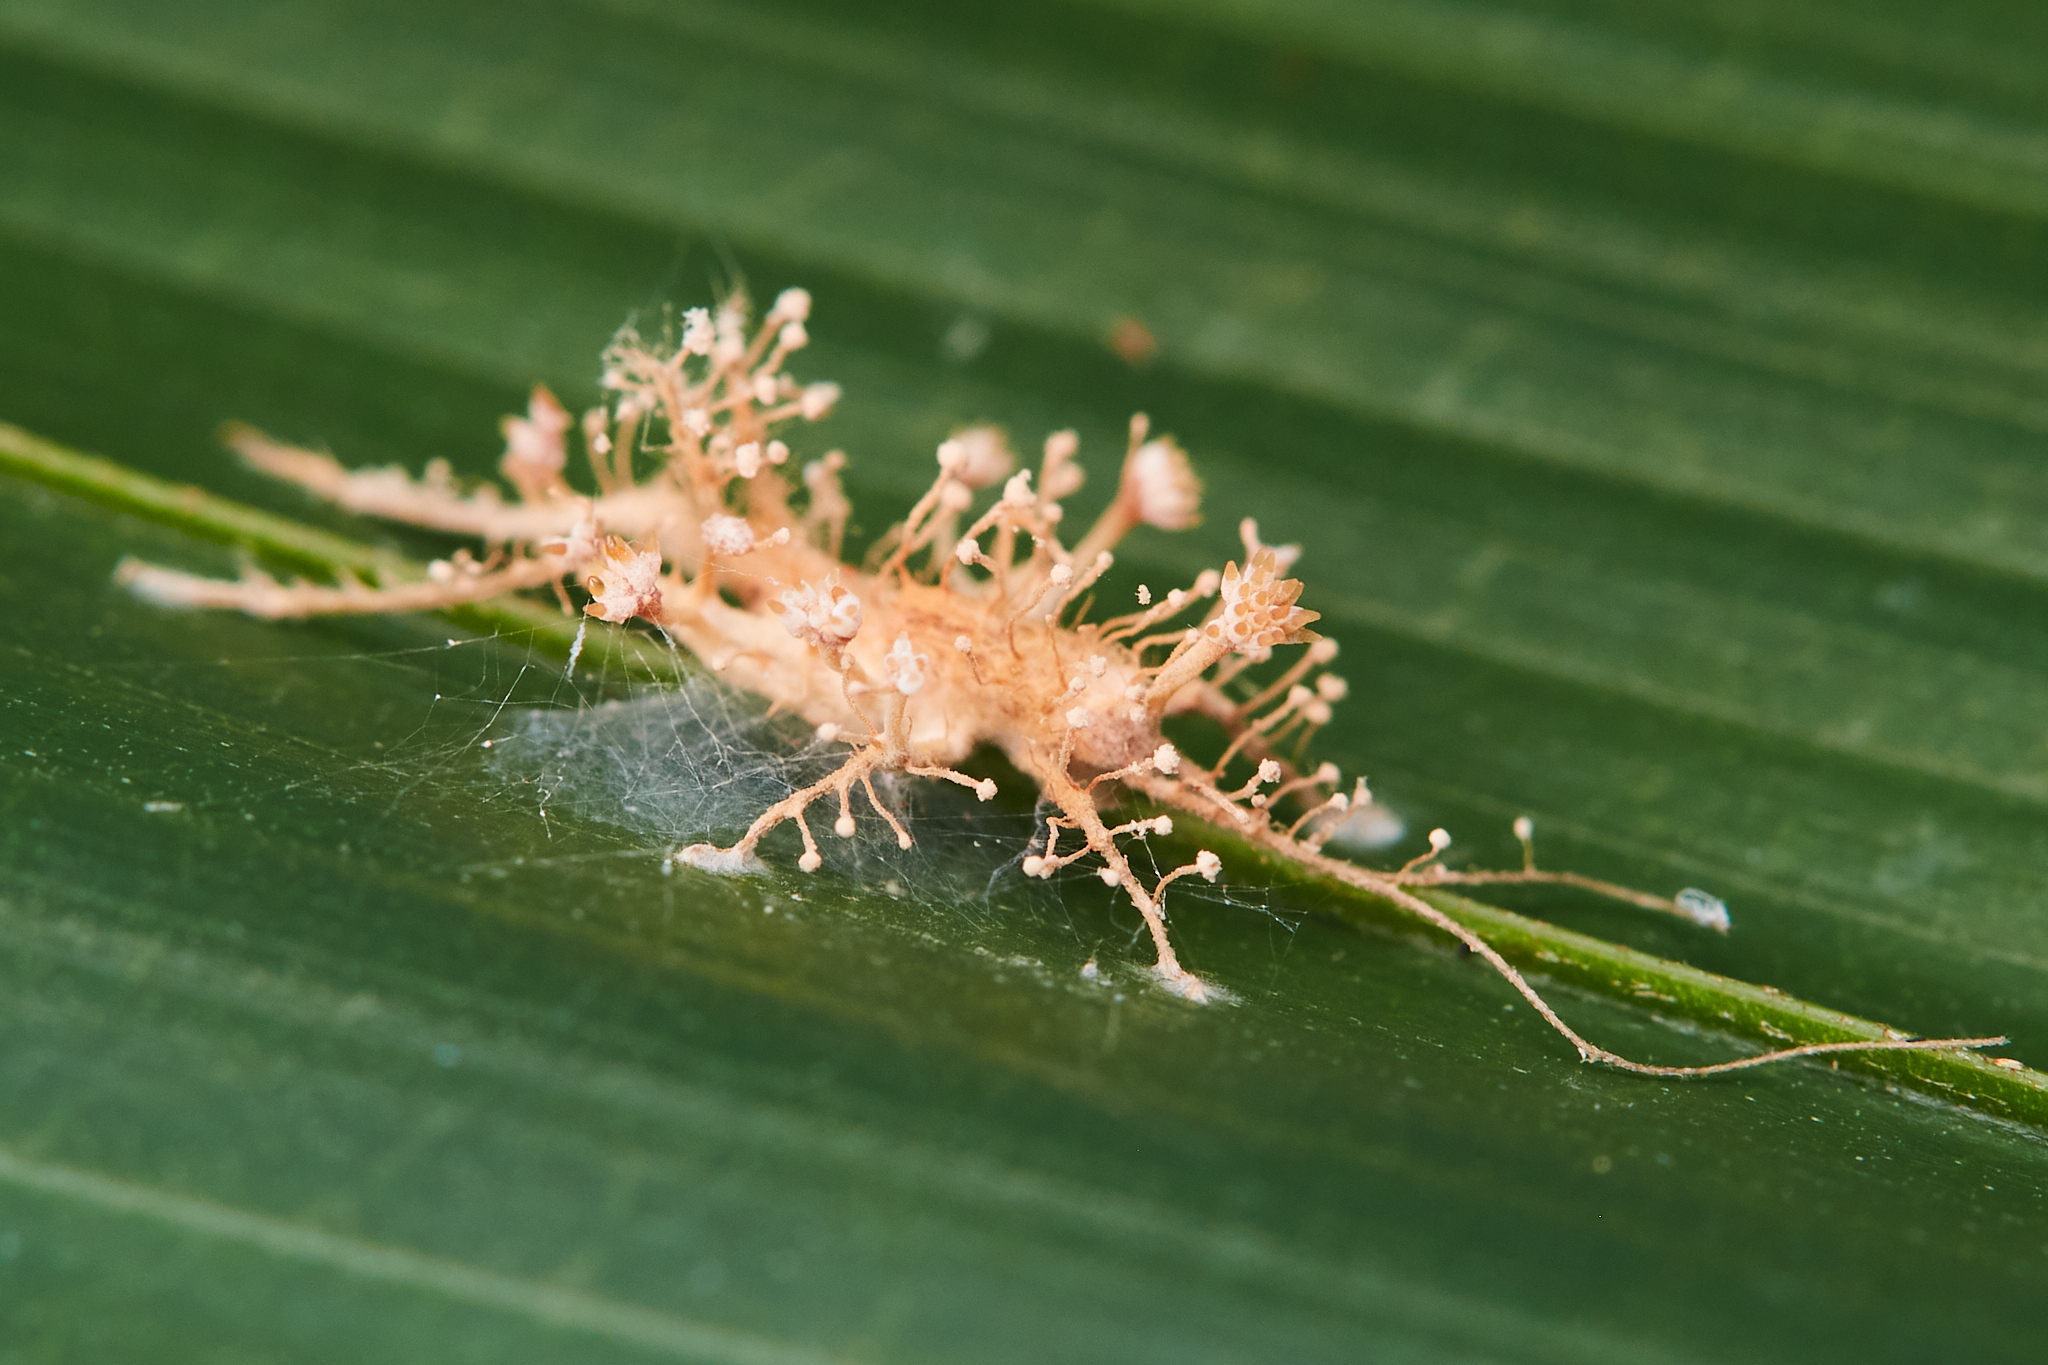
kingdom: Fungi
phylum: Ascomycota
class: Sordariomycetes
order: Hypocreales
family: Cordycipitaceae
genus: Akanthomyces
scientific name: Akanthomyces fragilis
